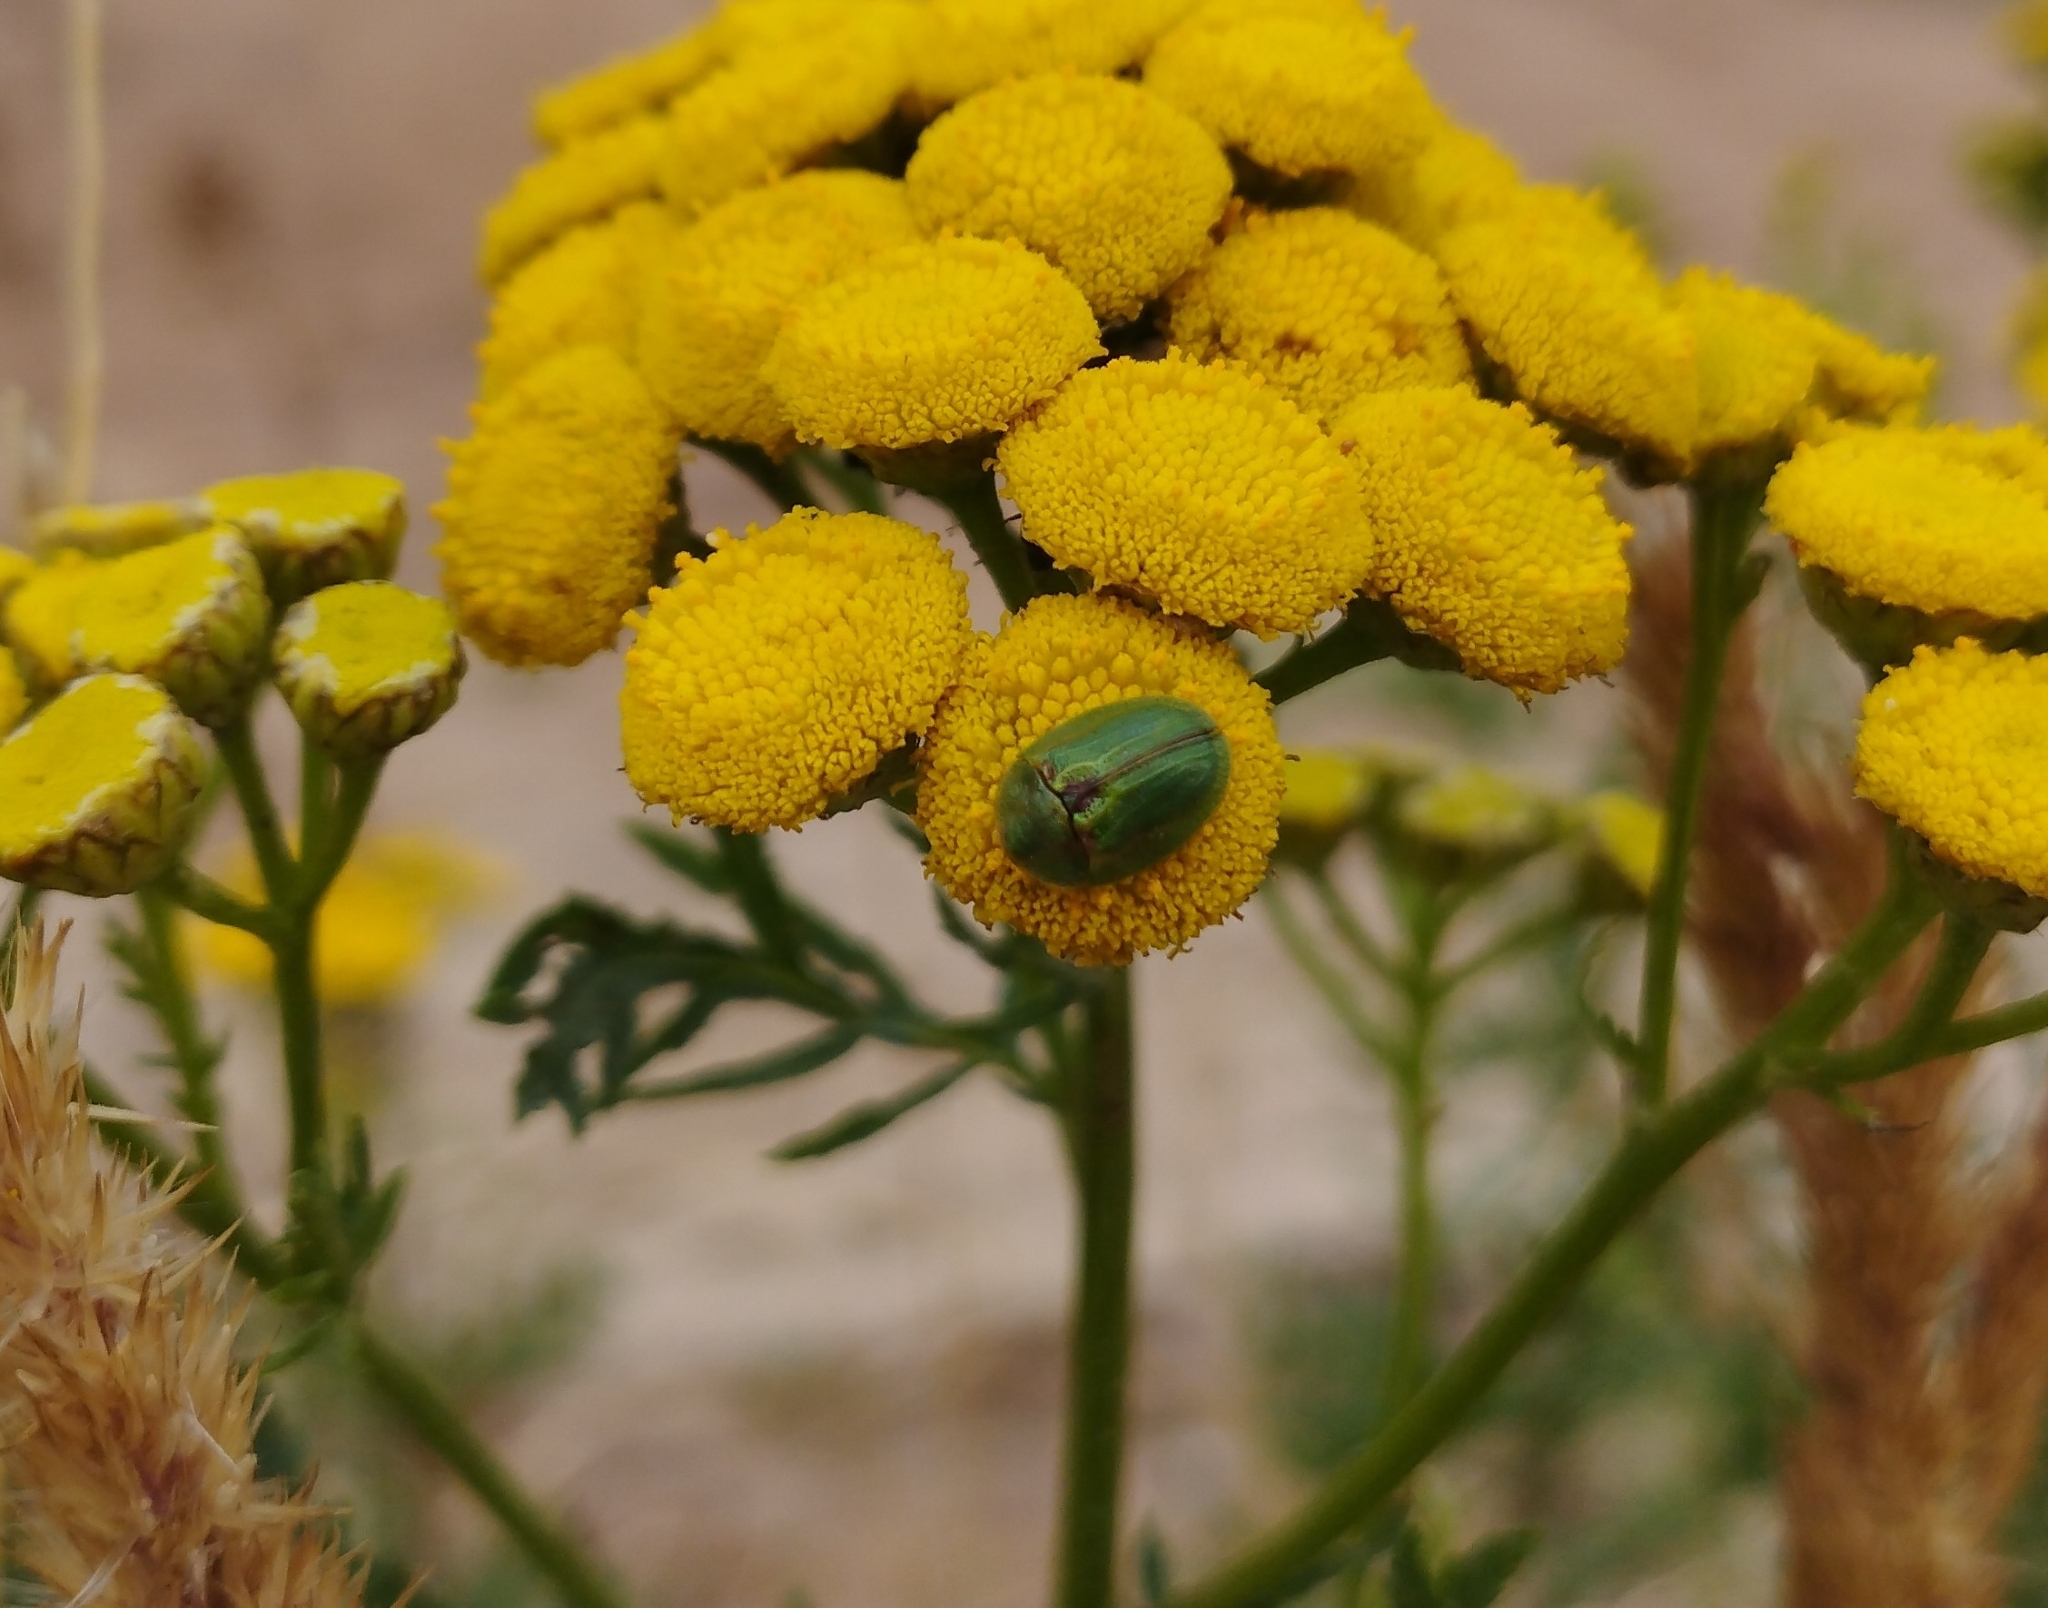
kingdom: Animalia
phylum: Arthropoda
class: Insecta
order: Coleoptera
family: Chrysomelidae
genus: Cassida
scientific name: Cassida stigmatica
